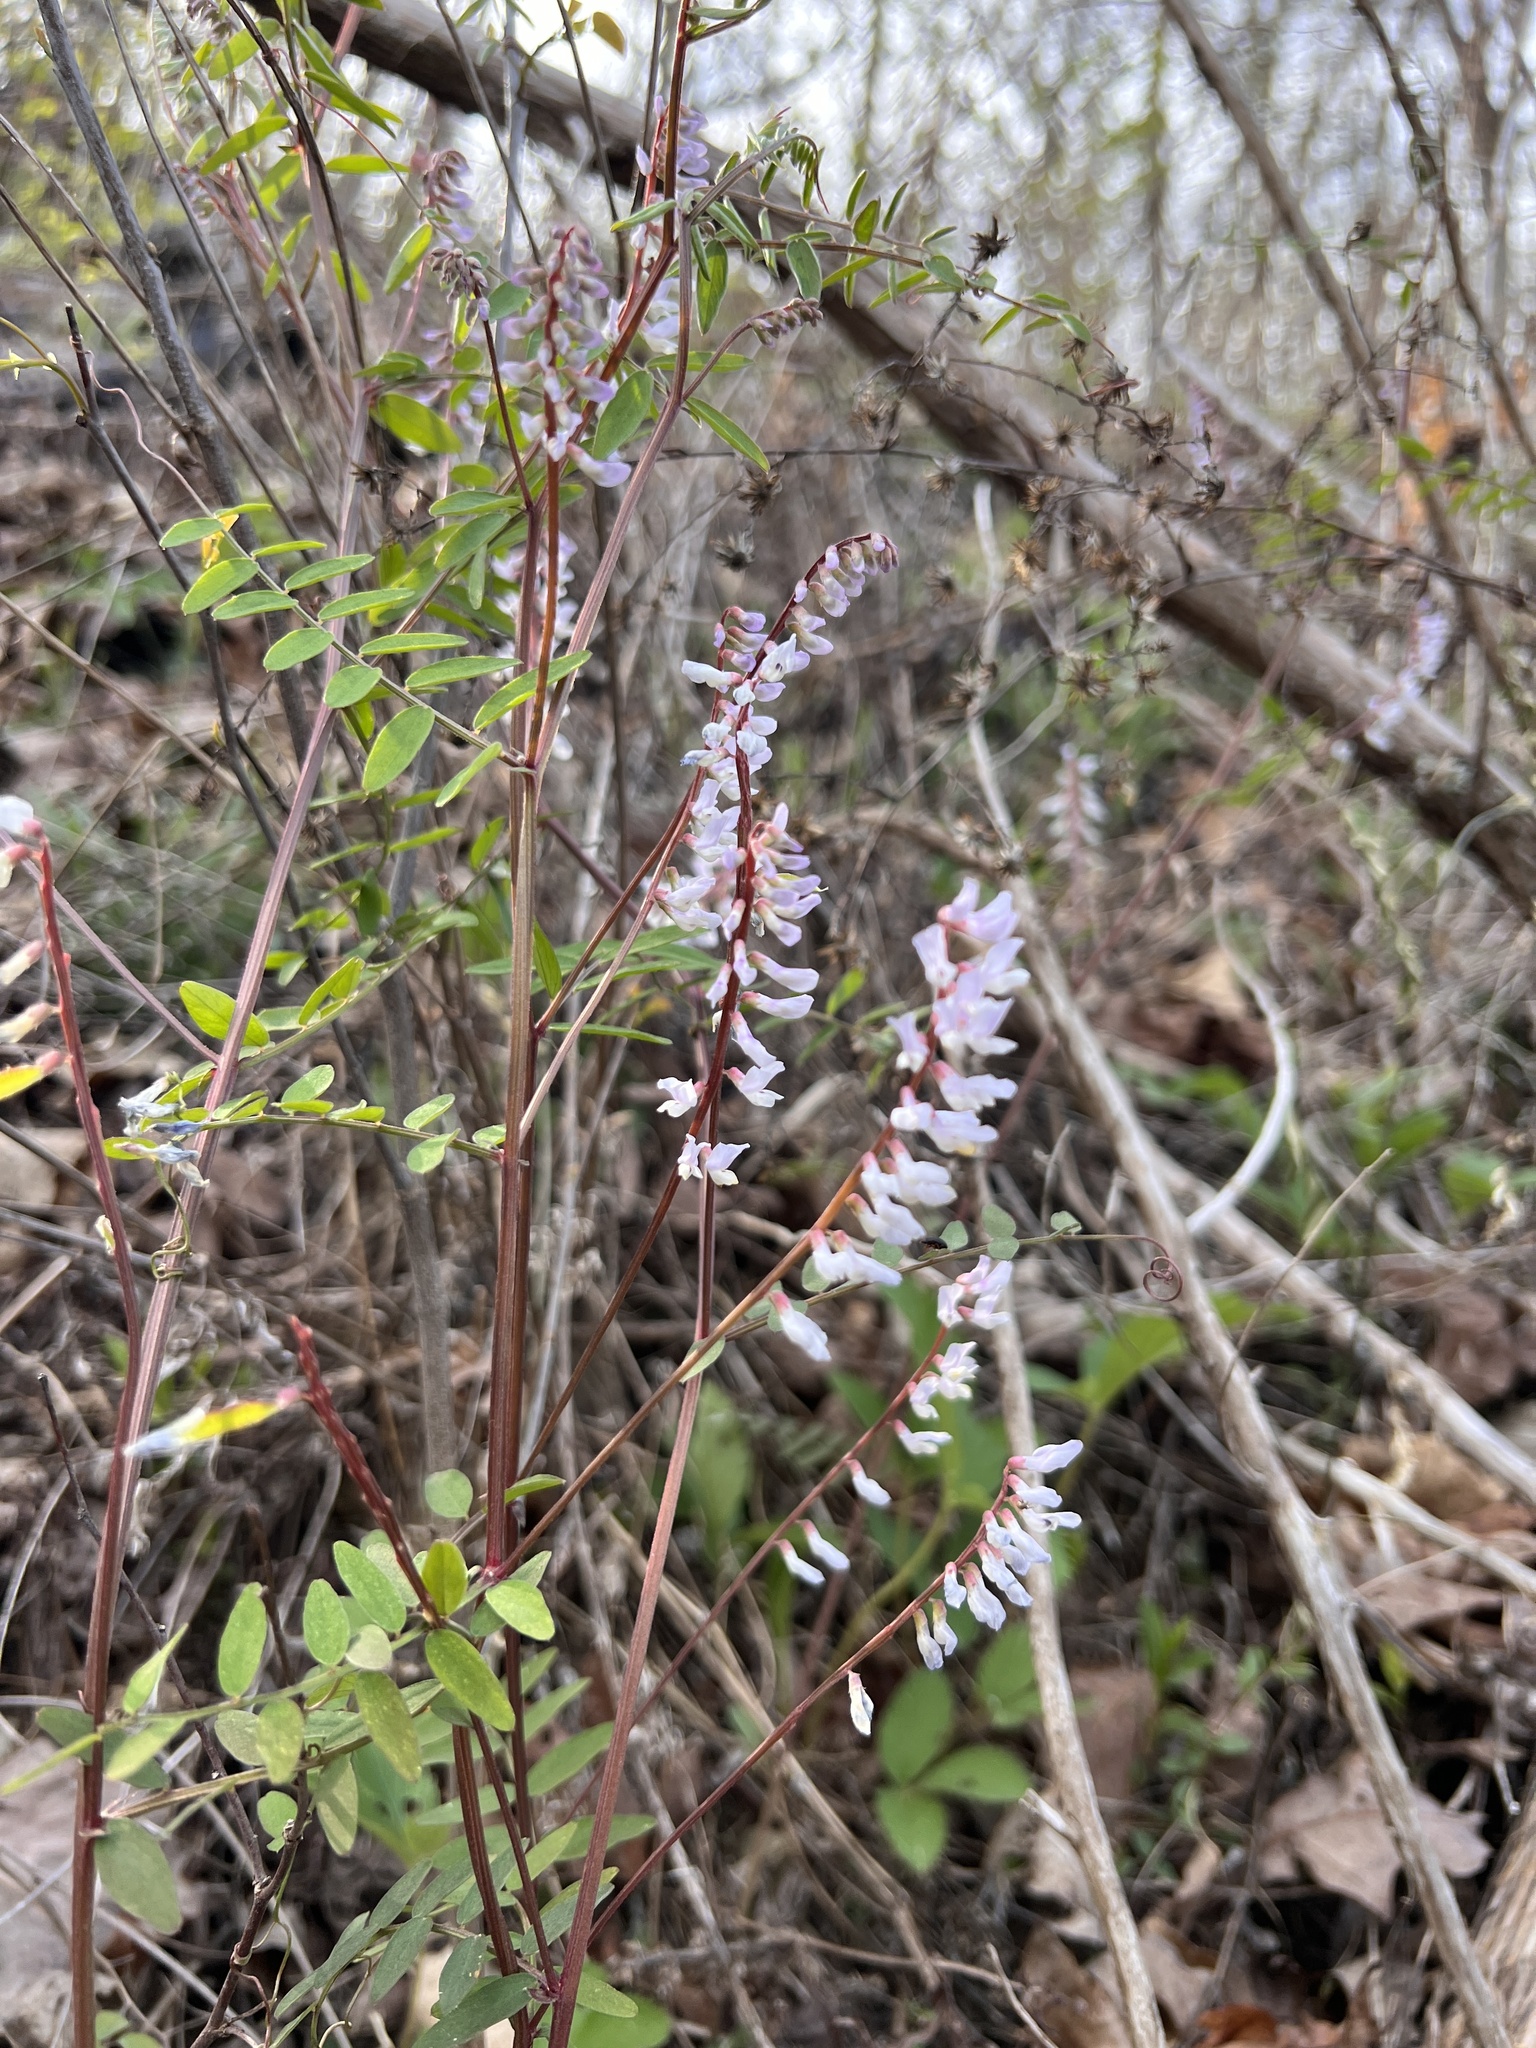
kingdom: Plantae
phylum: Tracheophyta
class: Magnoliopsida
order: Fabales
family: Fabaceae
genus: Vicia
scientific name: Vicia caroliniana
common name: Carolina vetch
